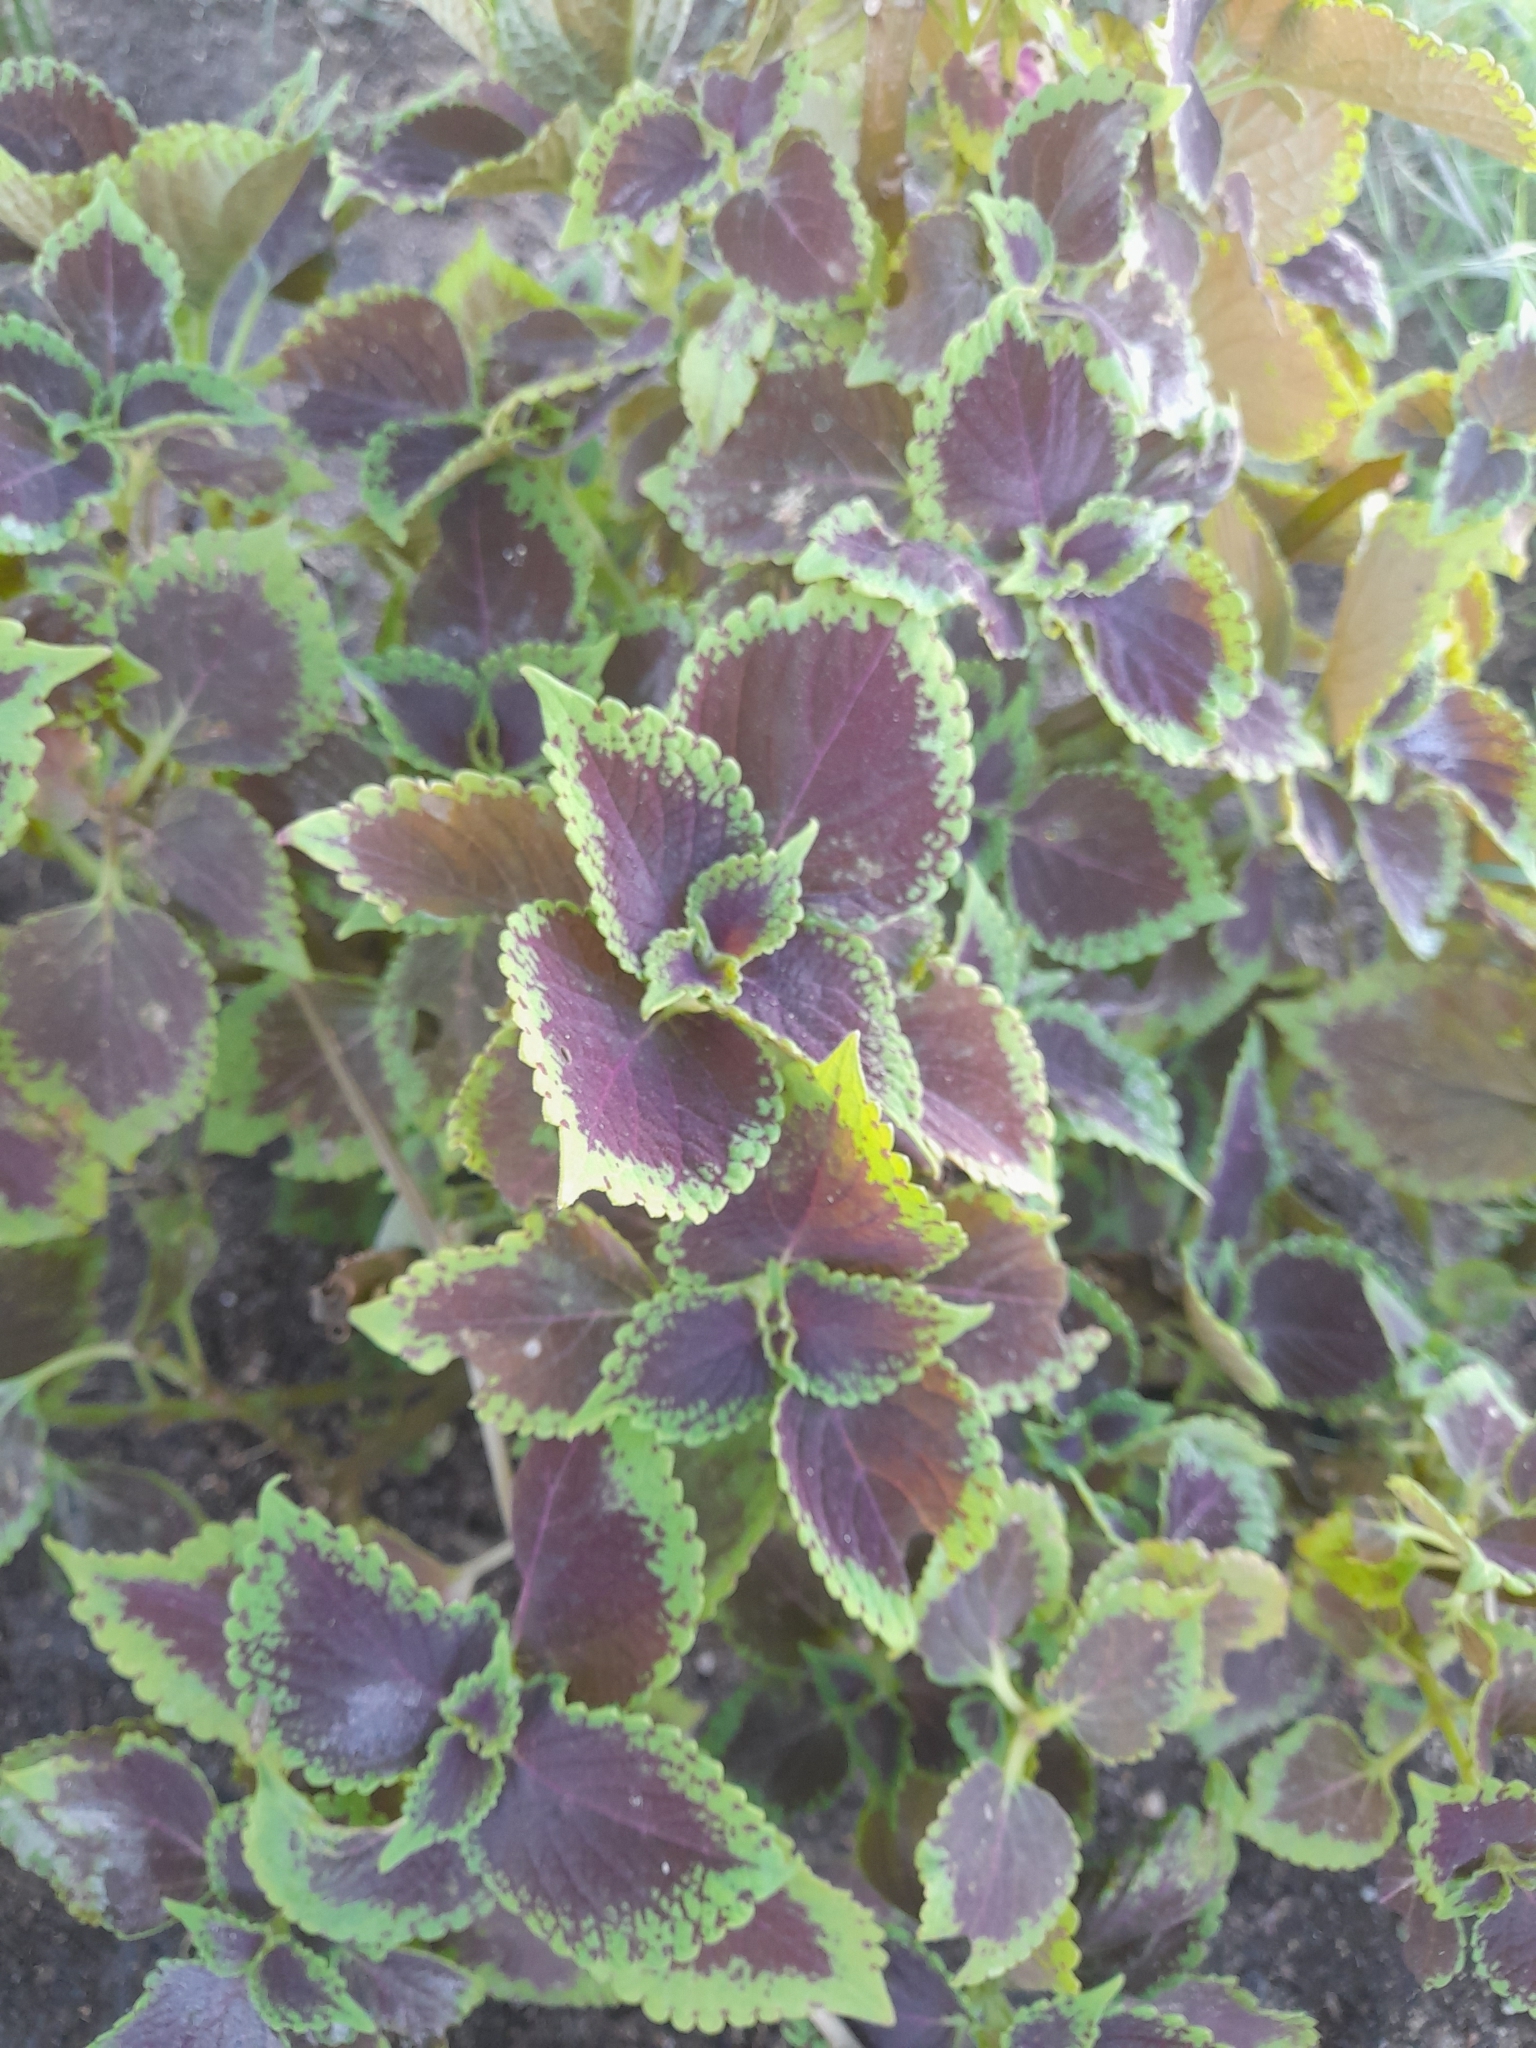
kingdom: Plantae
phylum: Tracheophyta
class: Magnoliopsida
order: Lamiales
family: Lamiaceae
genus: Coleus
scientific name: Coleus scutellarioides
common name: Coleus
